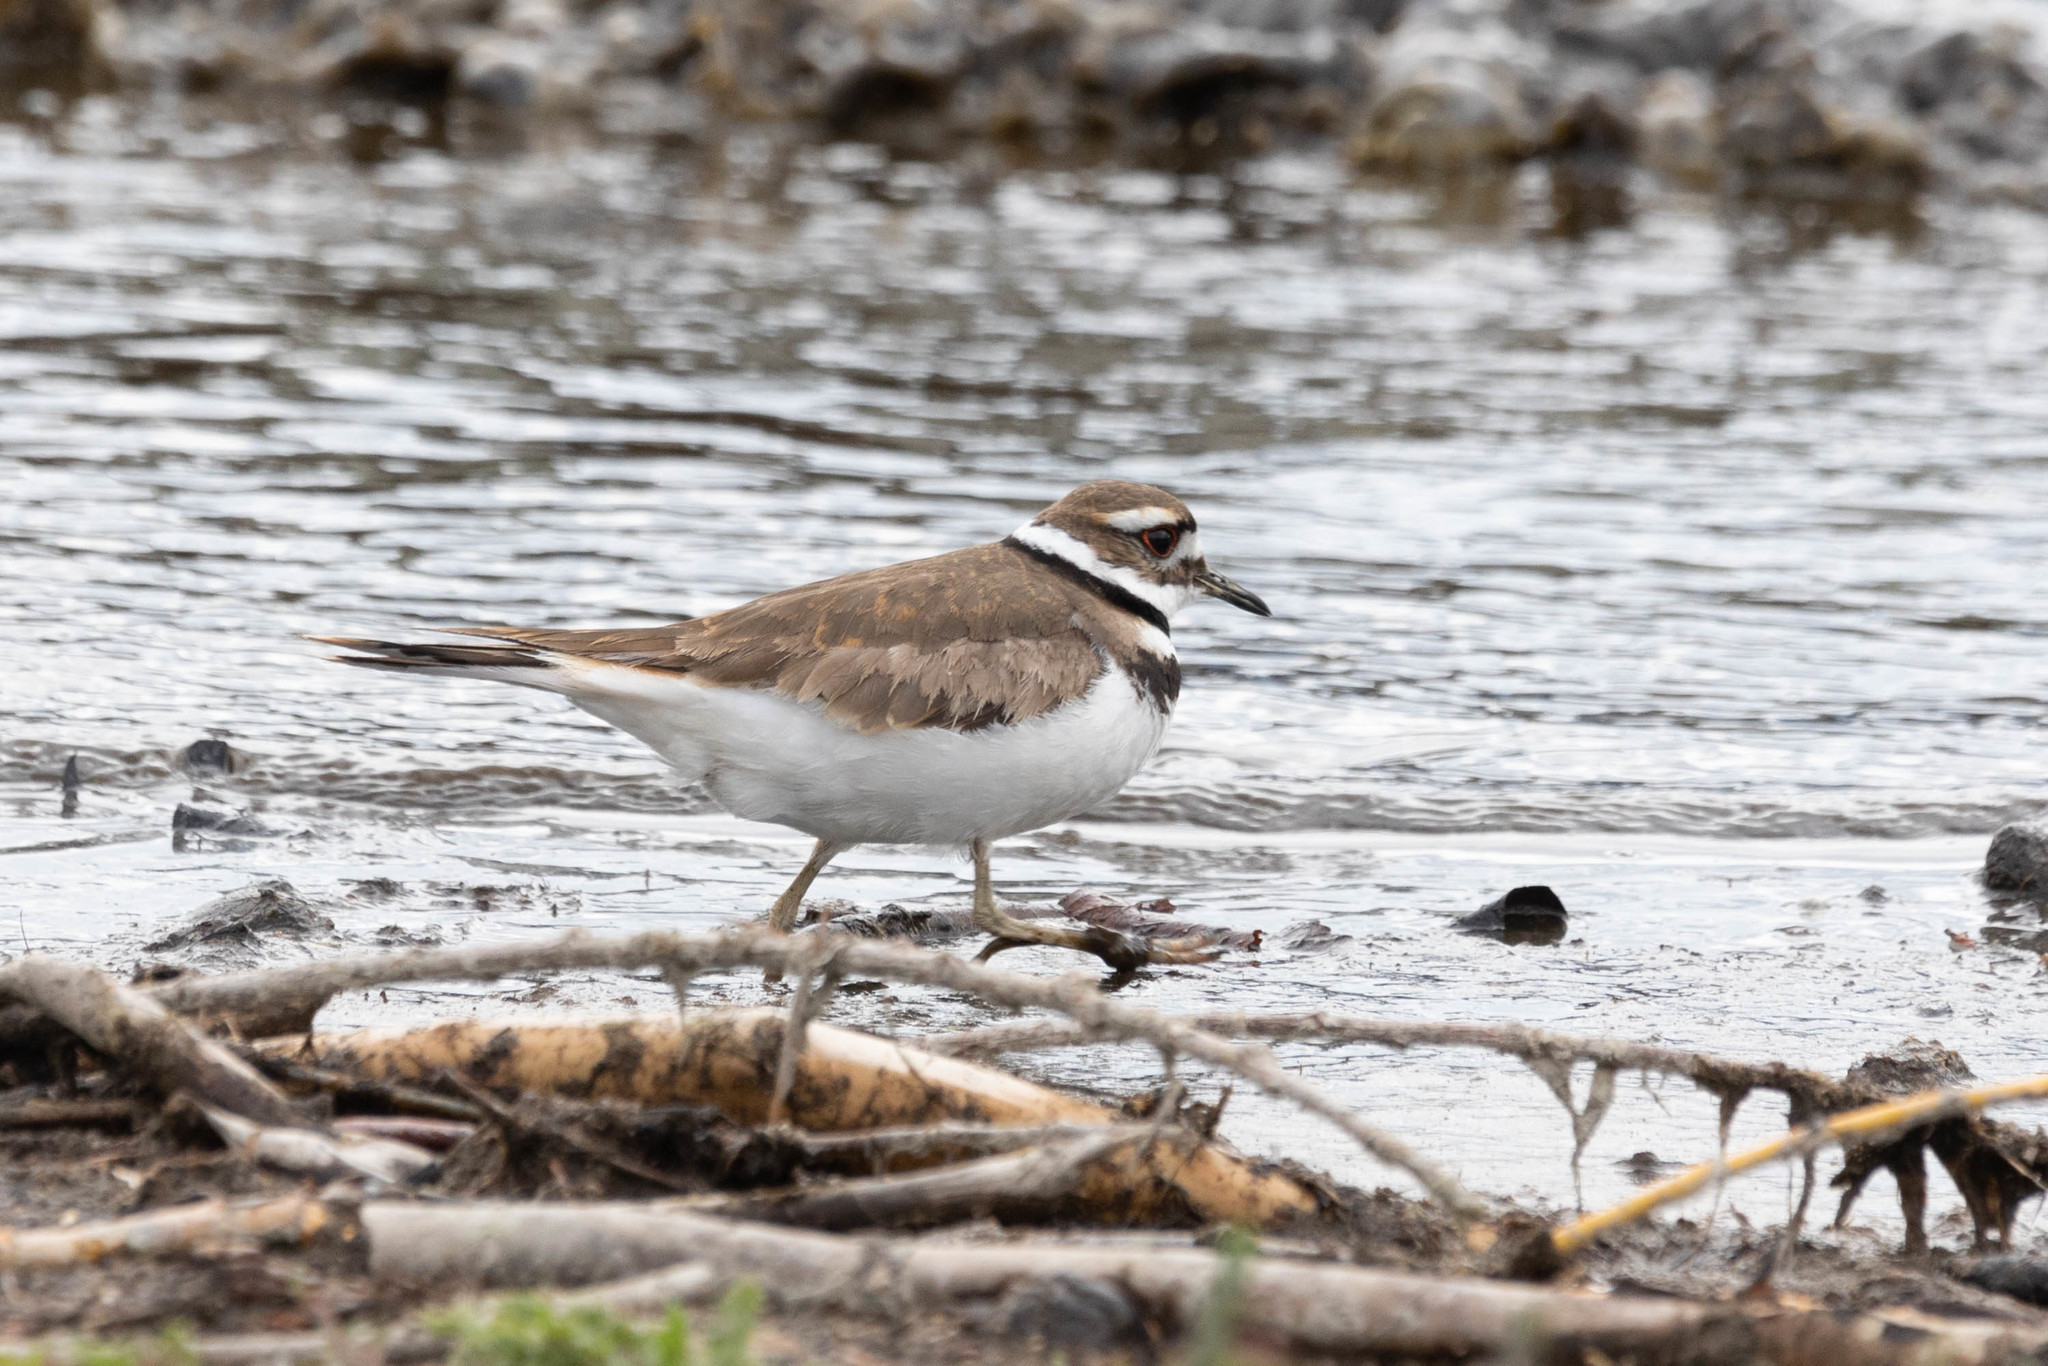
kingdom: Animalia
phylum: Chordata
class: Aves
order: Charadriiformes
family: Charadriidae
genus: Charadrius
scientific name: Charadrius vociferus
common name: Killdeer
